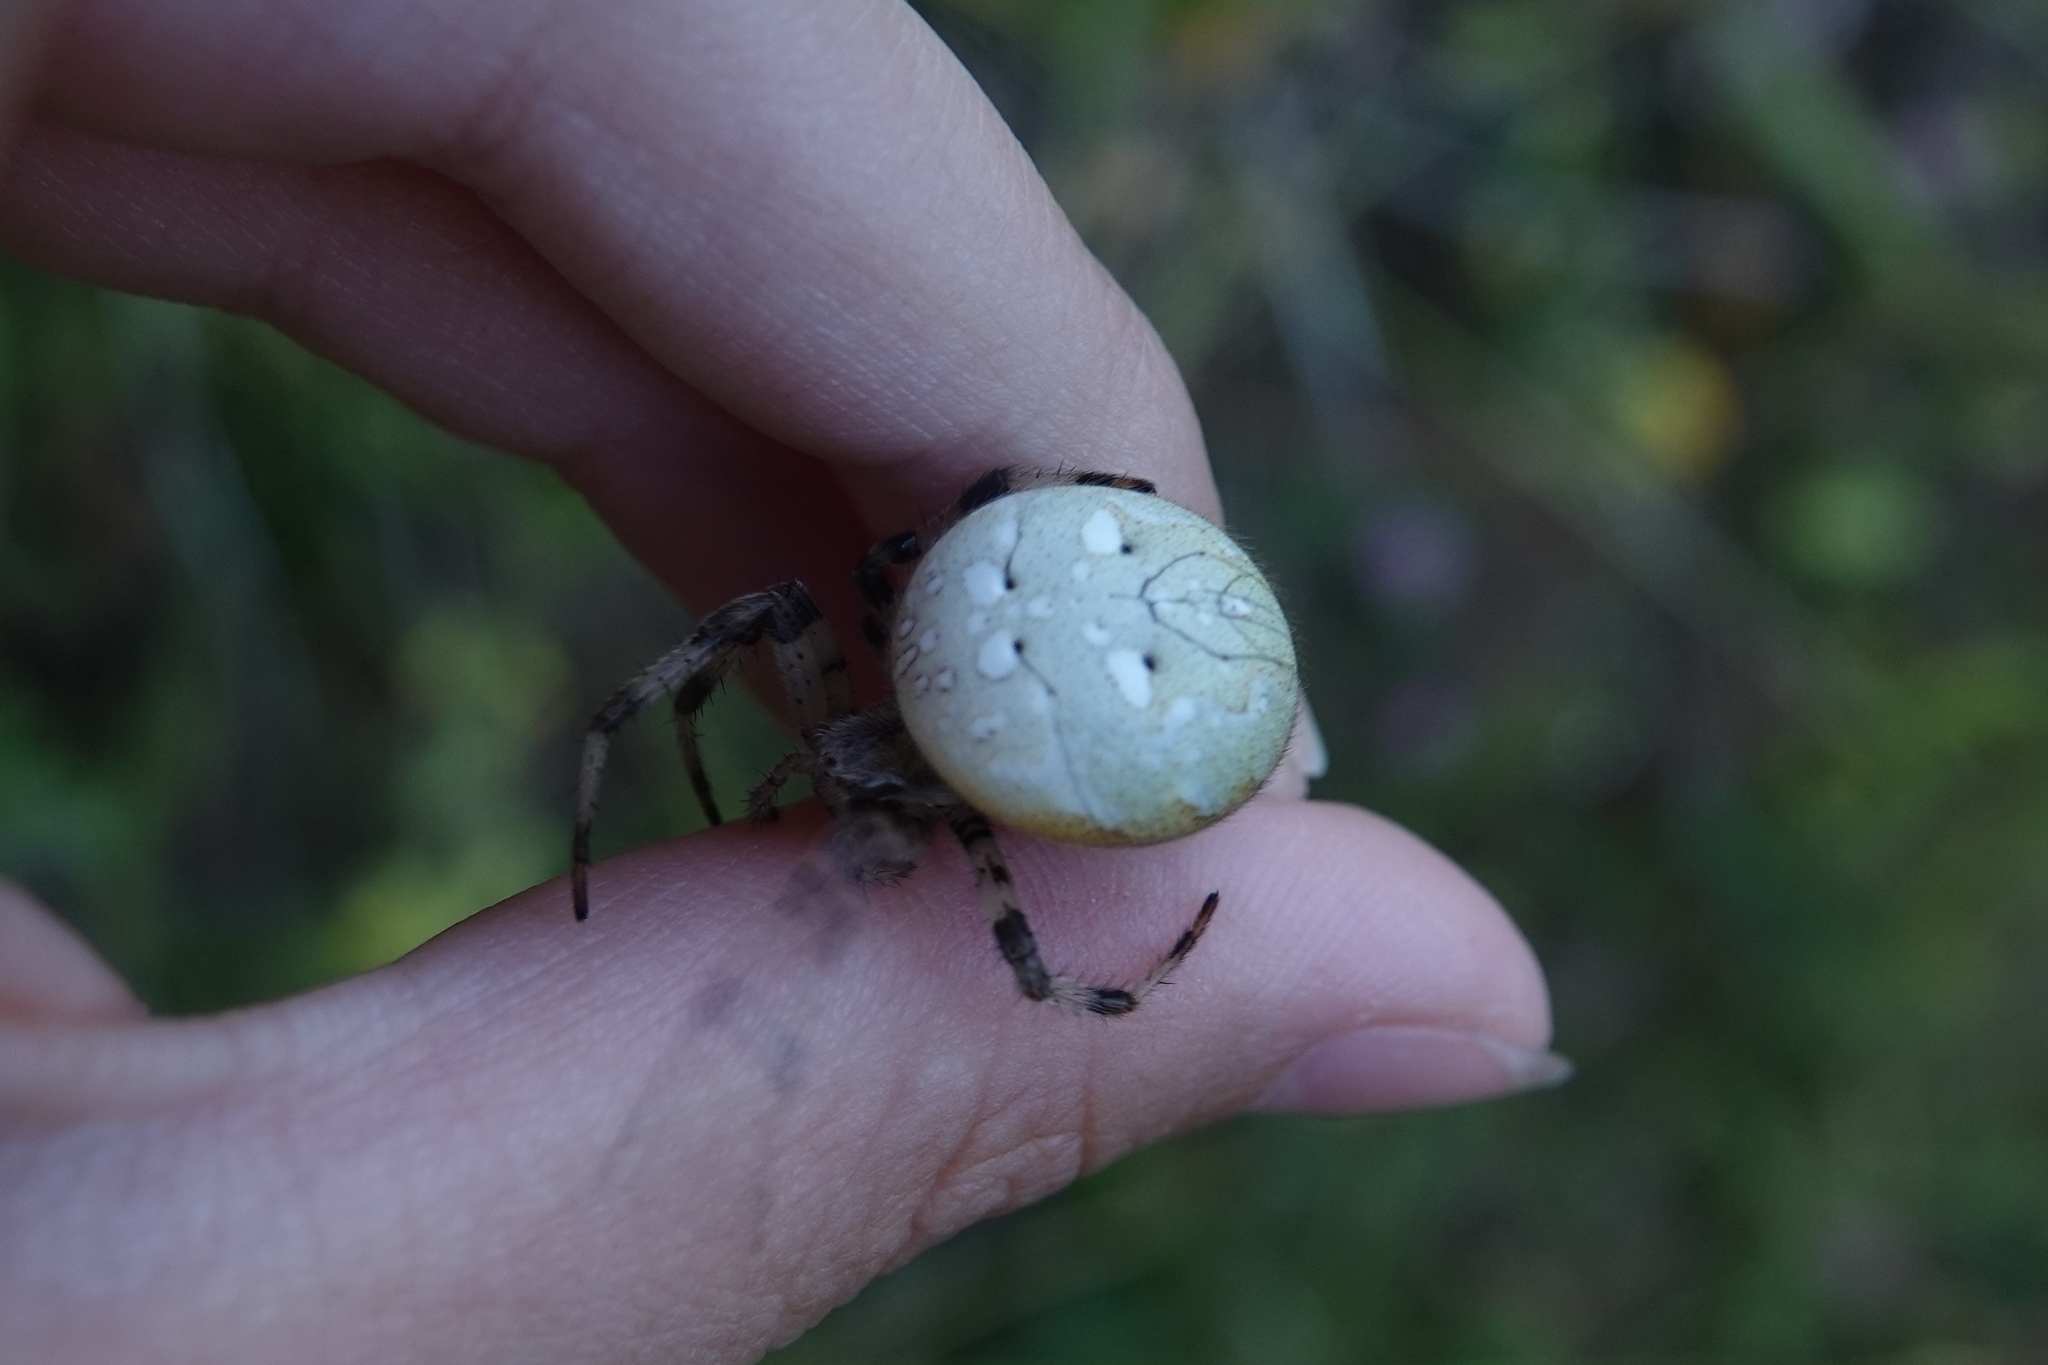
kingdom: Animalia
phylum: Arthropoda
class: Arachnida
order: Araneae
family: Araneidae
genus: Araneus
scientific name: Araneus quadratus
